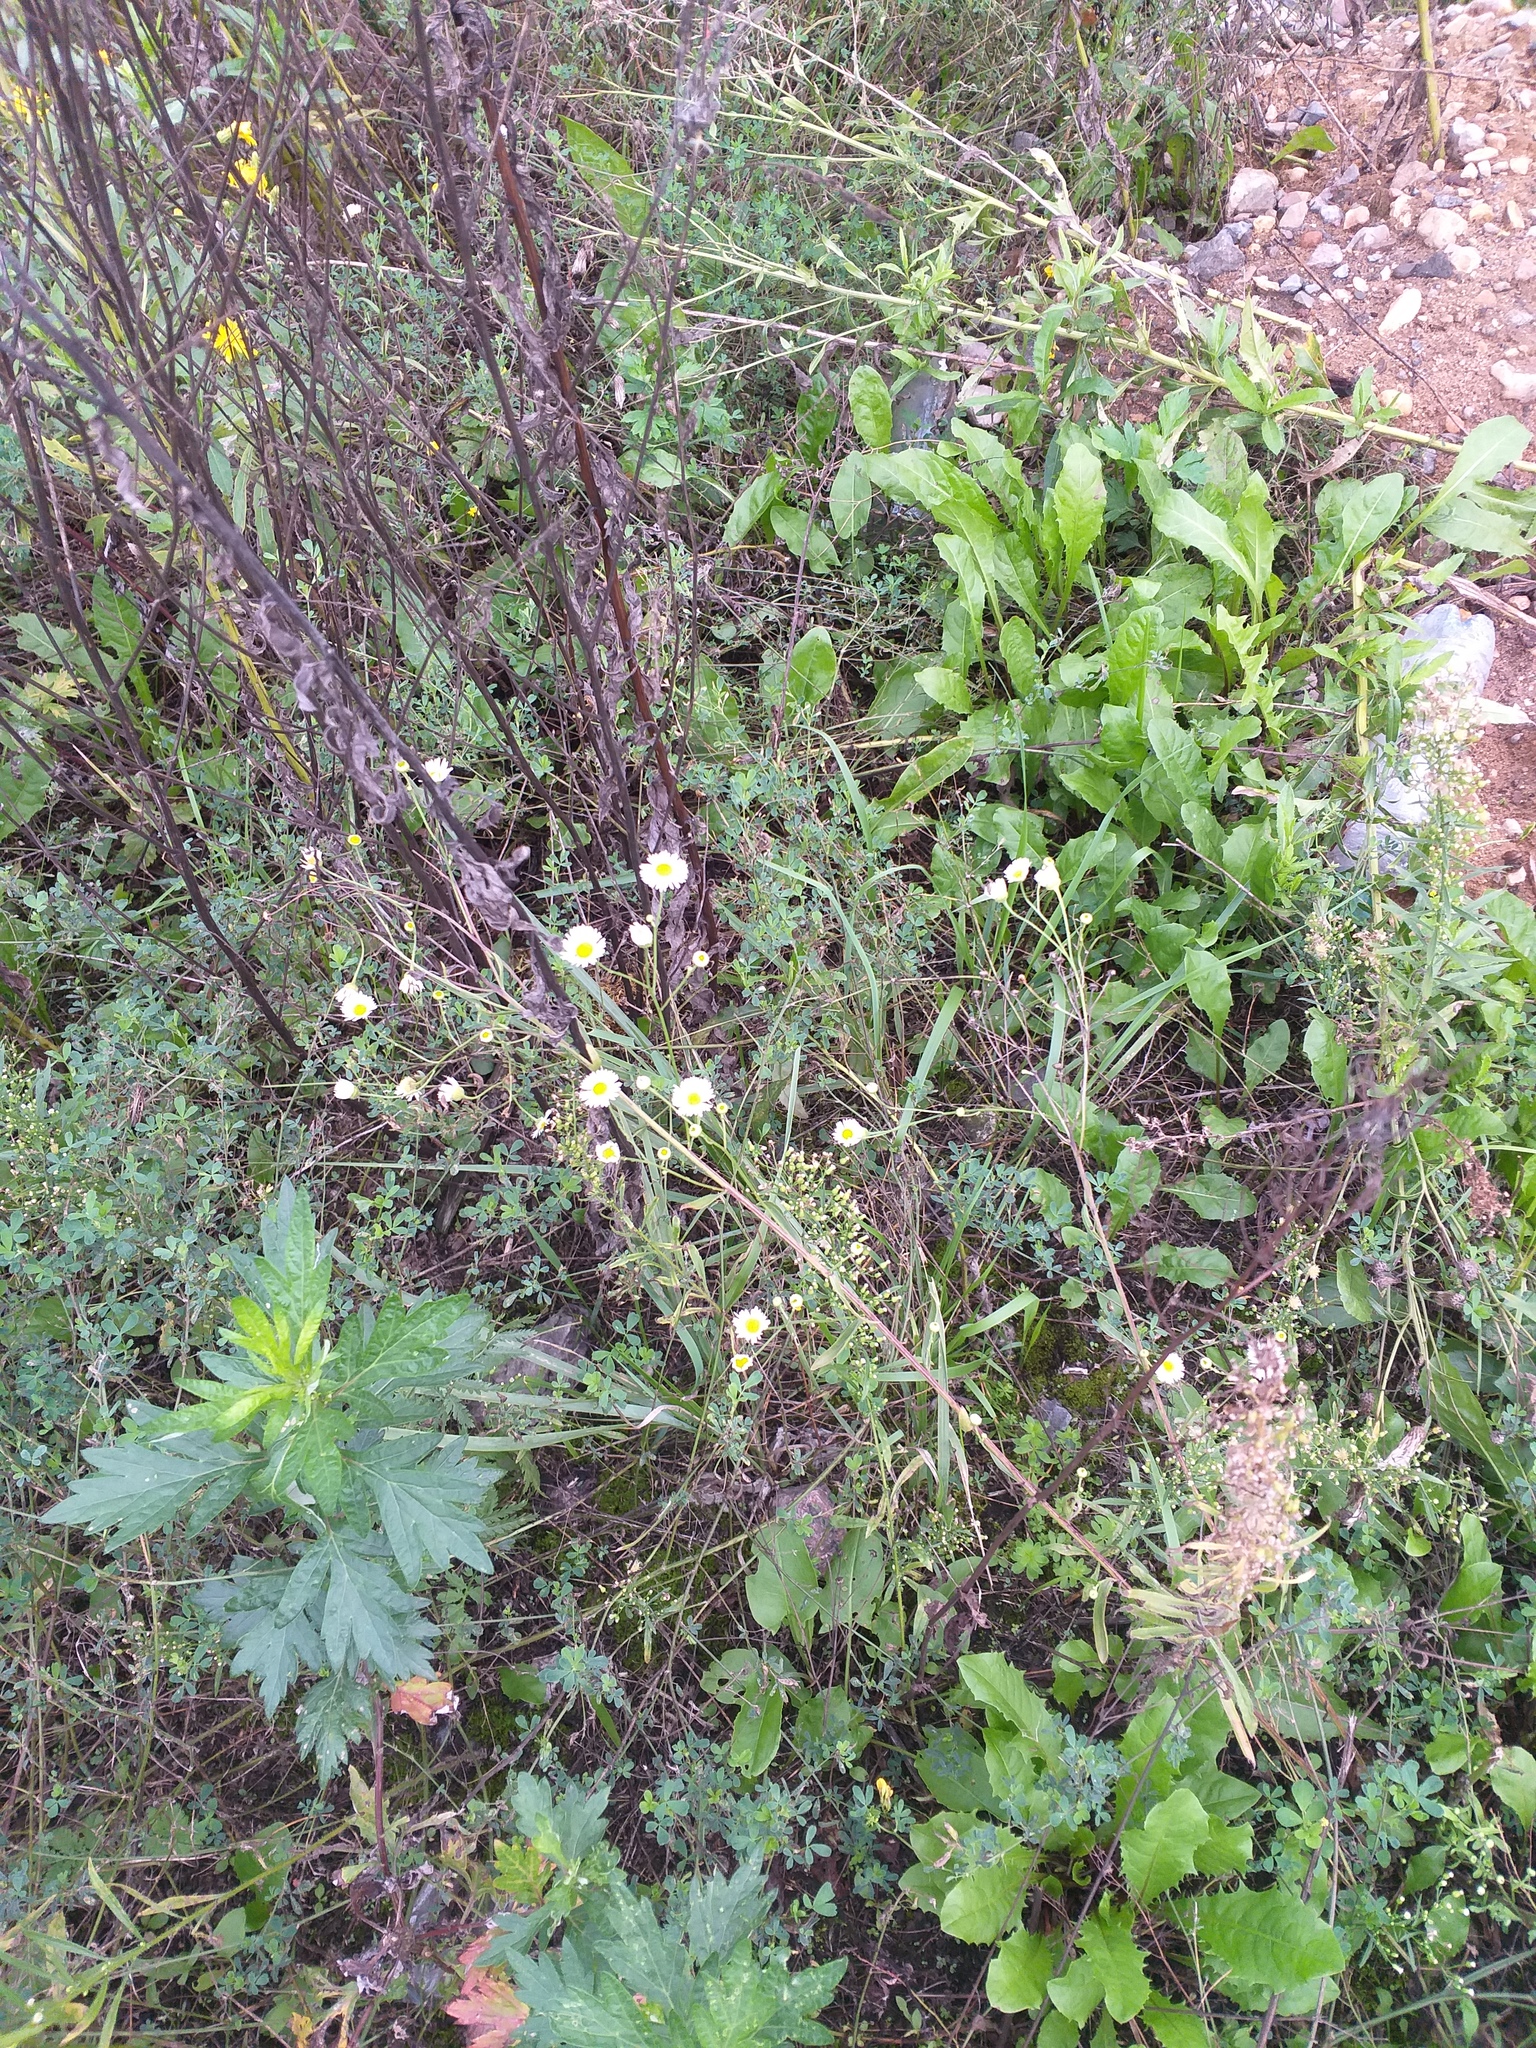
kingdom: Plantae
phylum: Tracheophyta
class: Magnoliopsida
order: Asterales
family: Asteraceae
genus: Erigeron
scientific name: Erigeron annuus
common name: Tall fleabane
